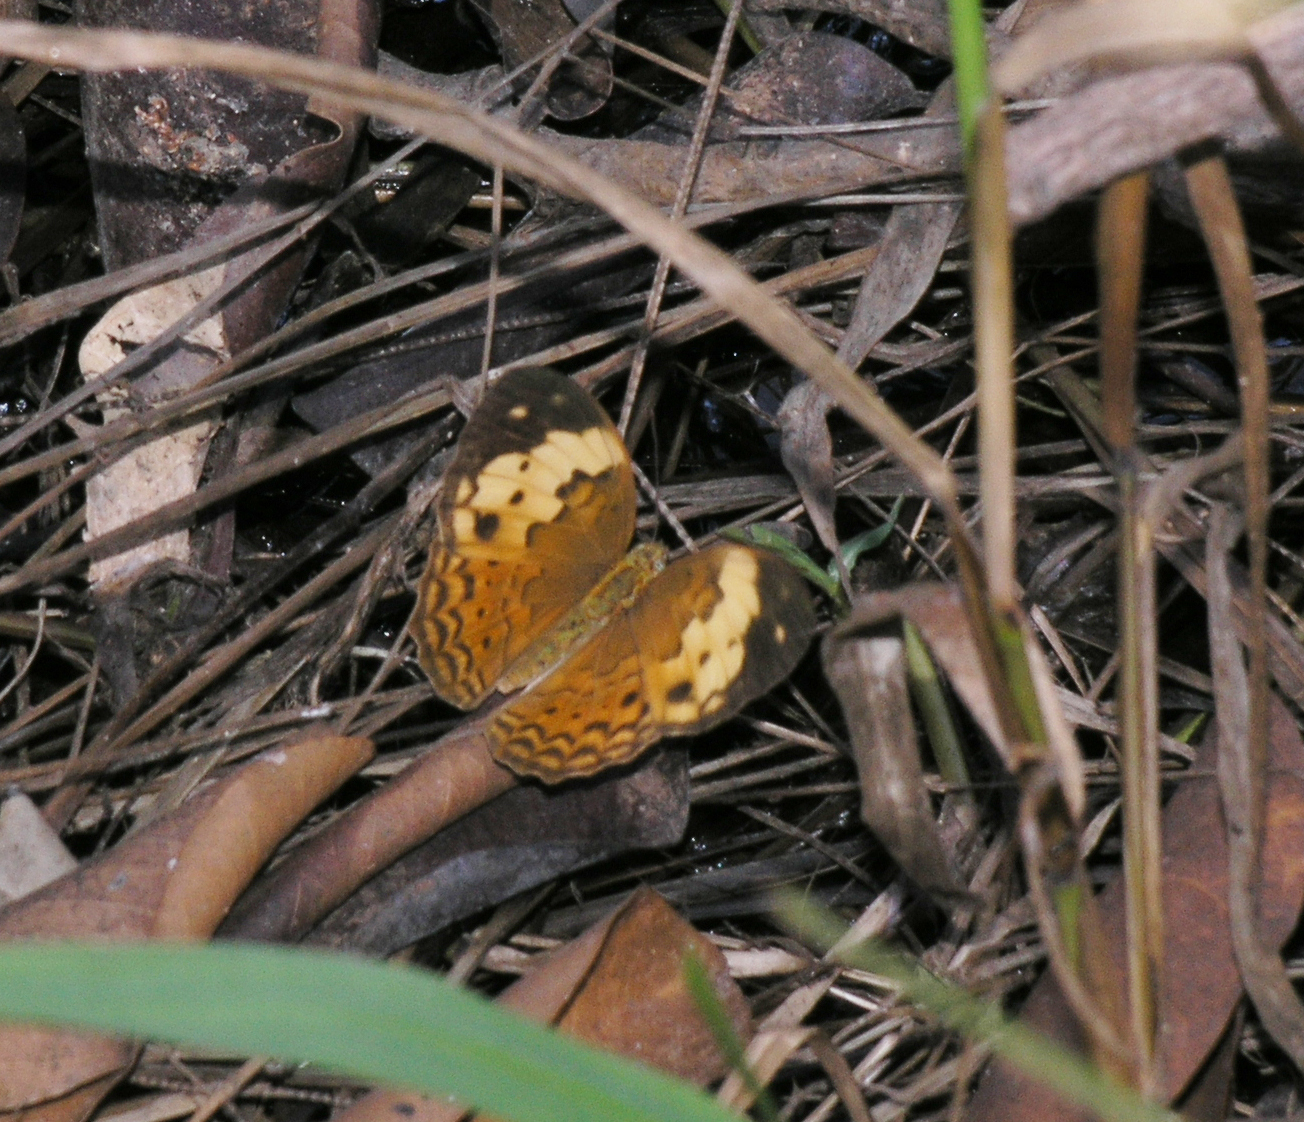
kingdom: Animalia
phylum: Arthropoda
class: Insecta
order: Lepidoptera
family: Nymphalidae
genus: Cupha
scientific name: Cupha erymanthis
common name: Rustic
